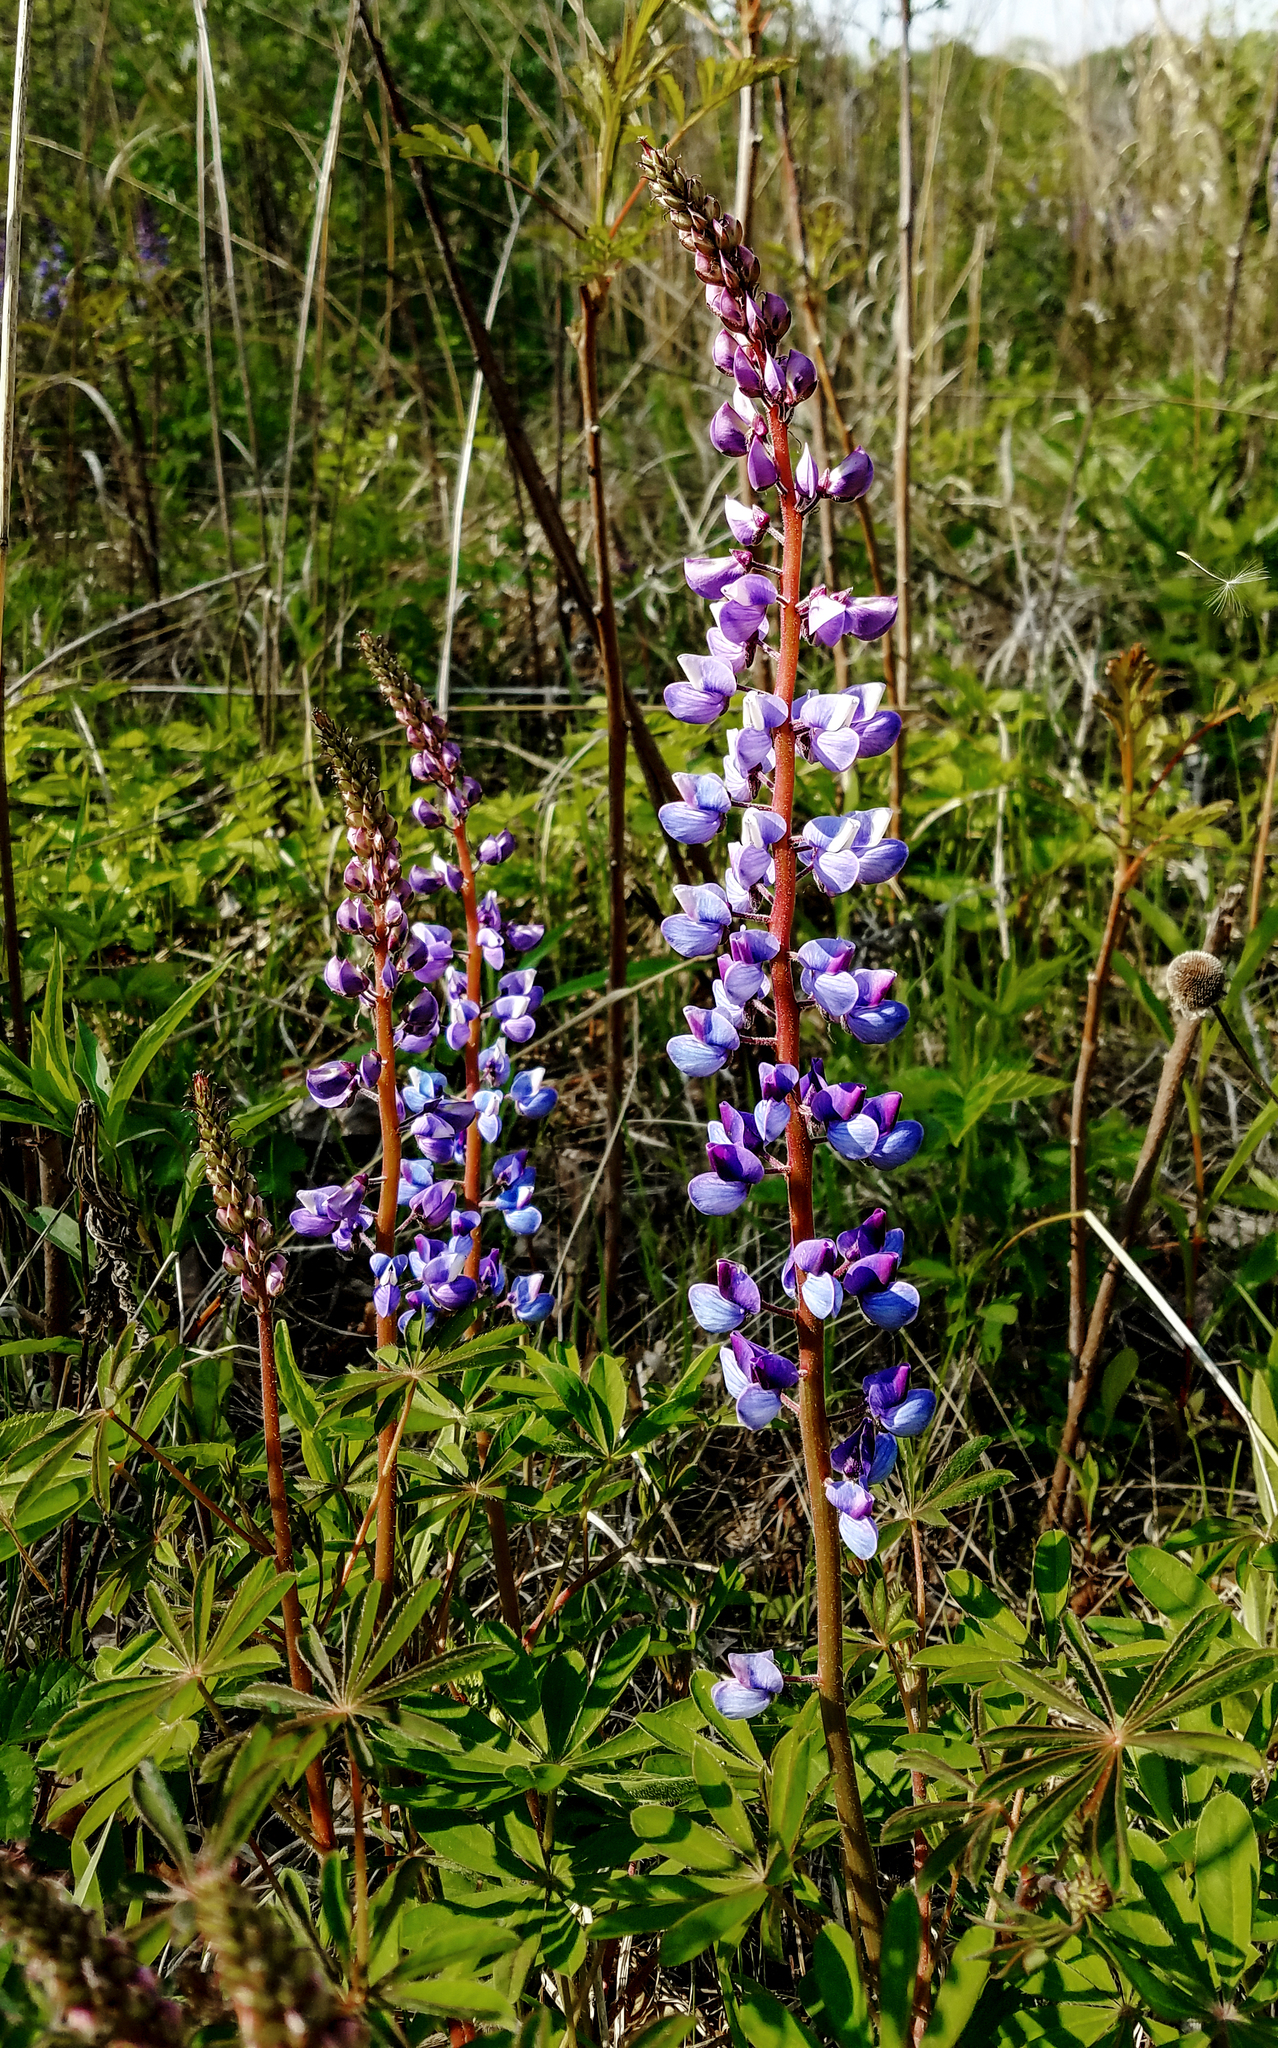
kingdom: Plantae
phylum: Tracheophyta
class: Magnoliopsida
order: Fabales
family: Fabaceae
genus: Lupinus
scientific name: Lupinus perennis
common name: Sundial lupine
